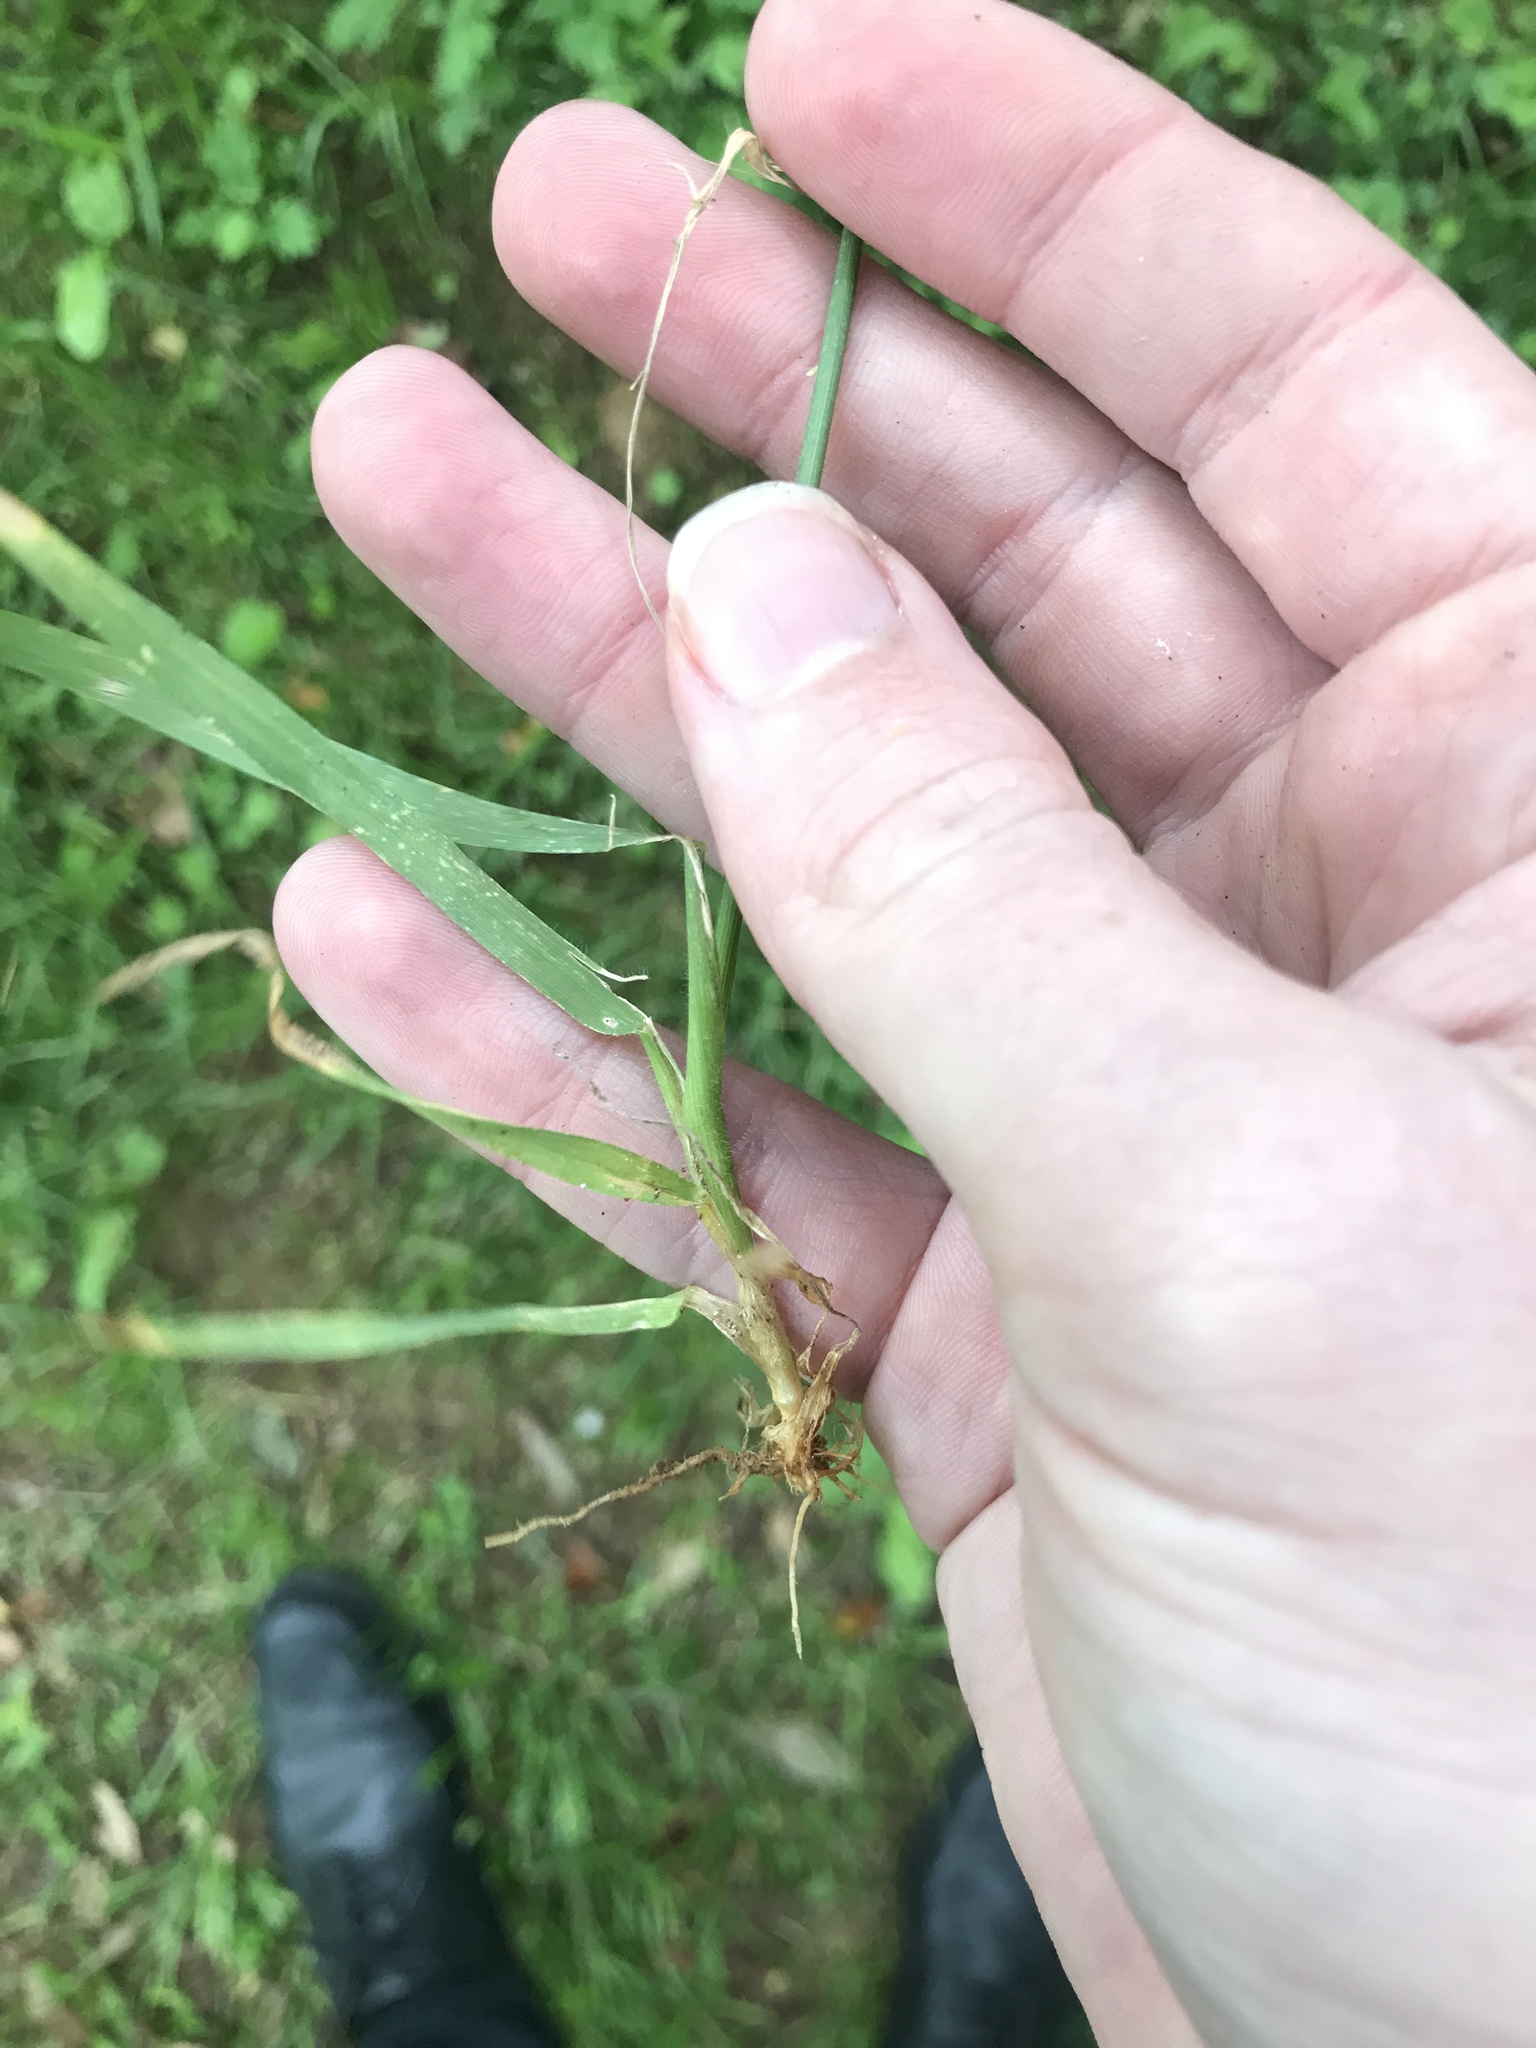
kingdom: Plantae
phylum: Tracheophyta
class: Liliopsida
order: Poales
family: Poaceae
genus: Sibirotrisetum
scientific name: Sibirotrisetum bifidum
